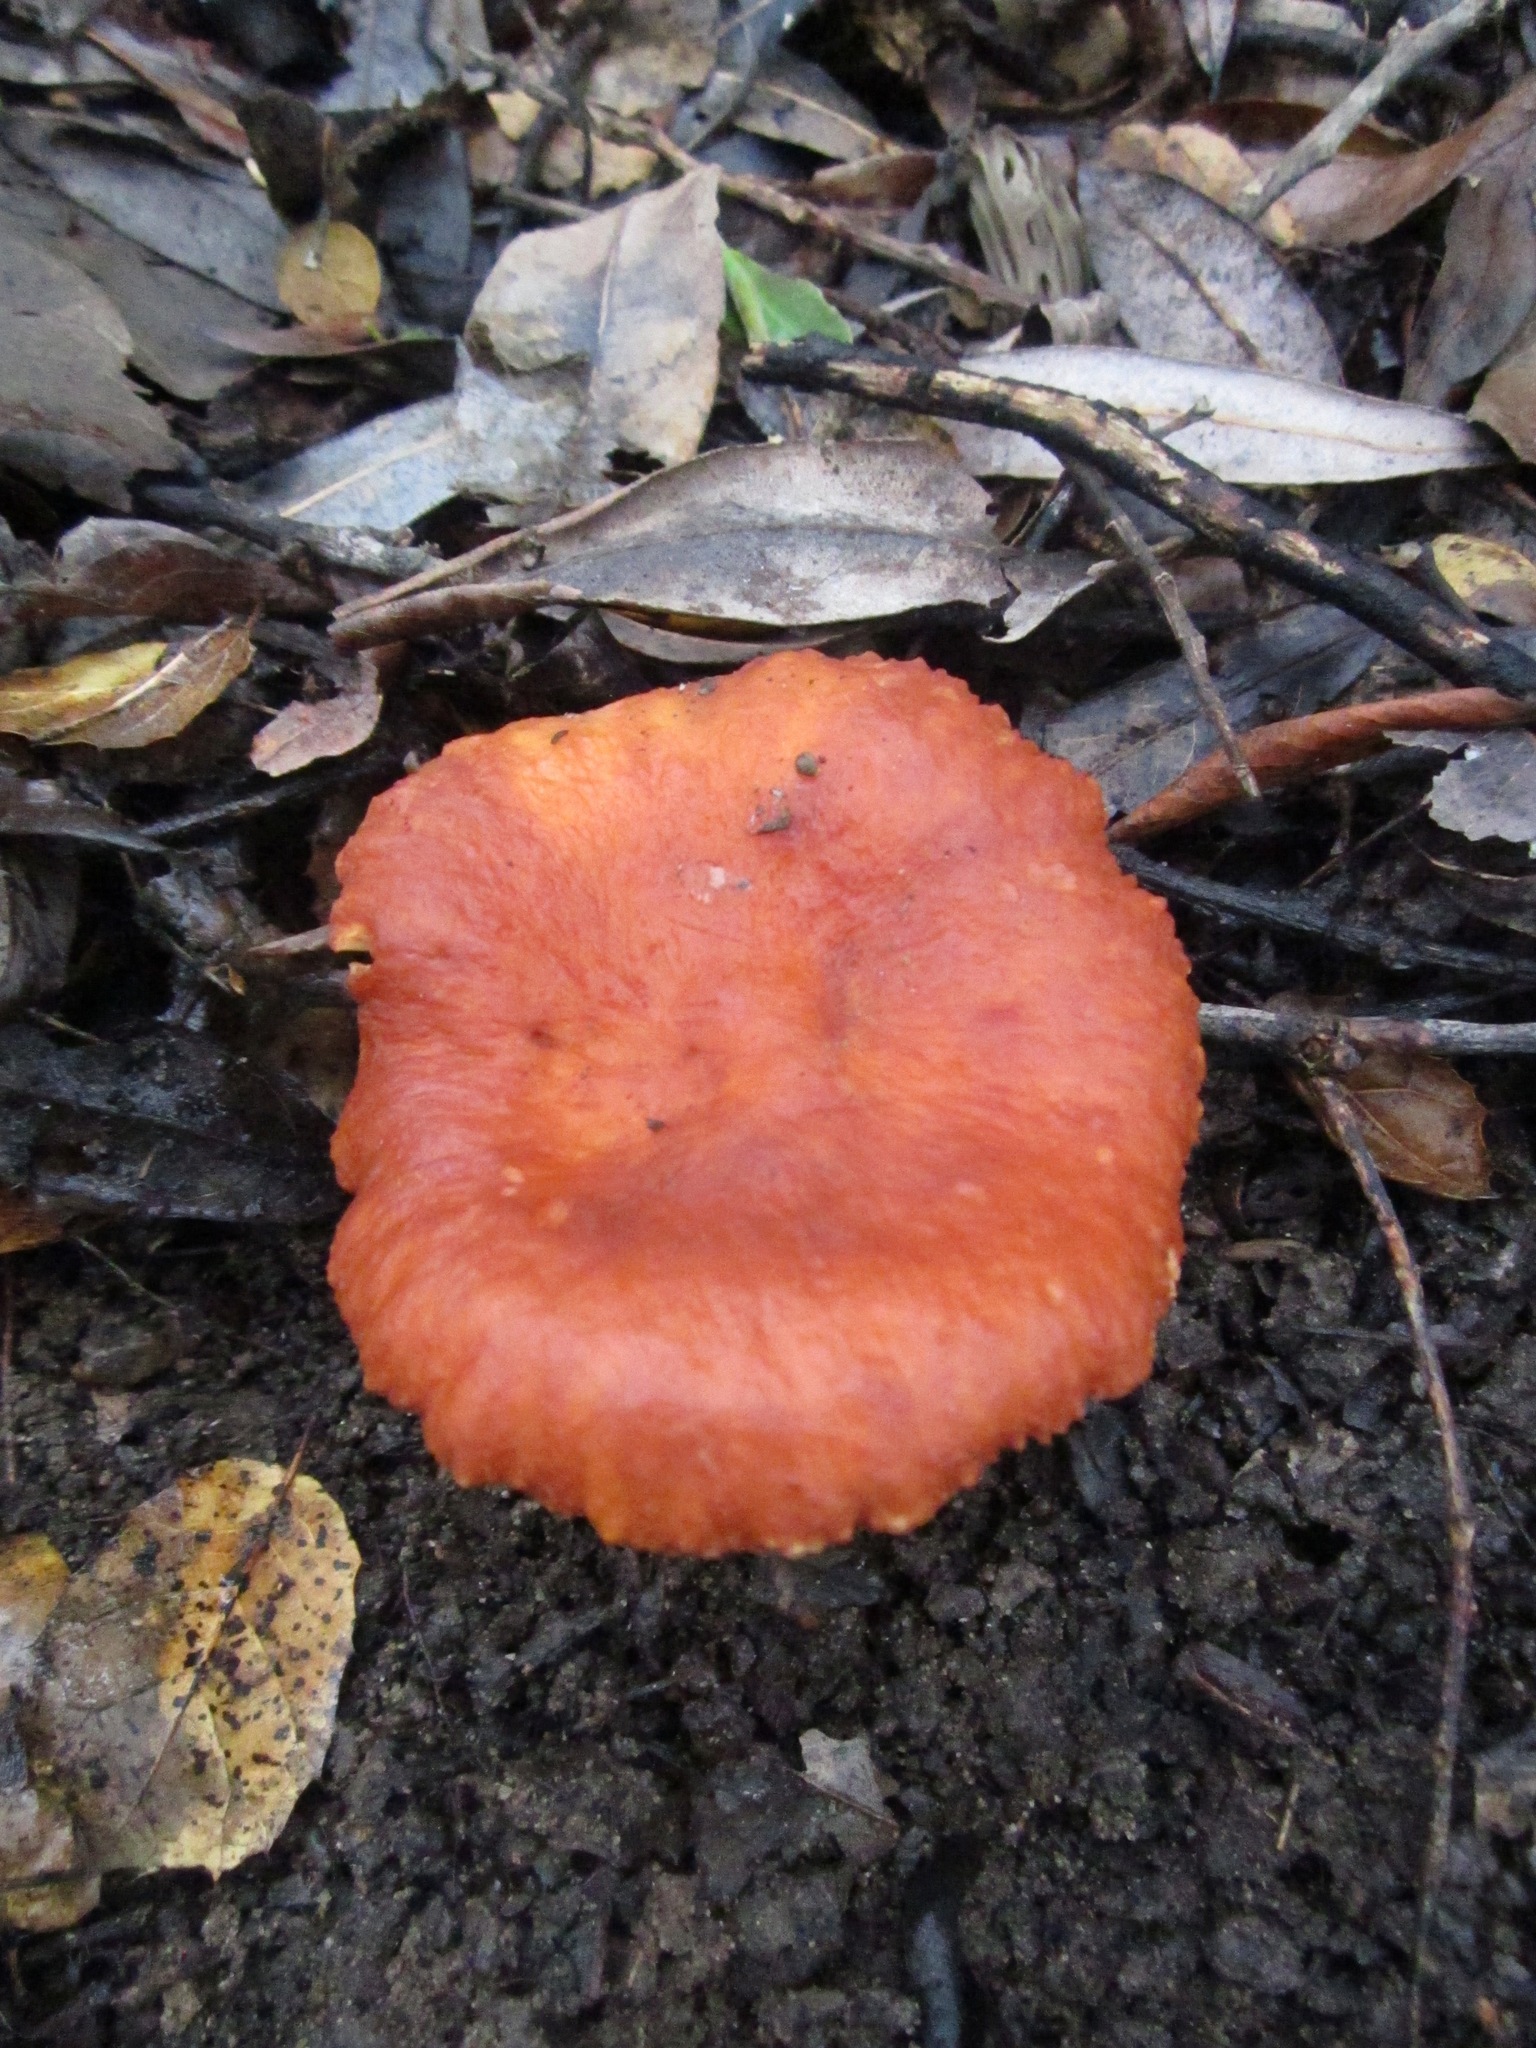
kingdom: Fungi
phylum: Basidiomycota
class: Agaricomycetes
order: Russulales
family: Russulaceae
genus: Lactarius
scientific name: Lactarius rufulus
